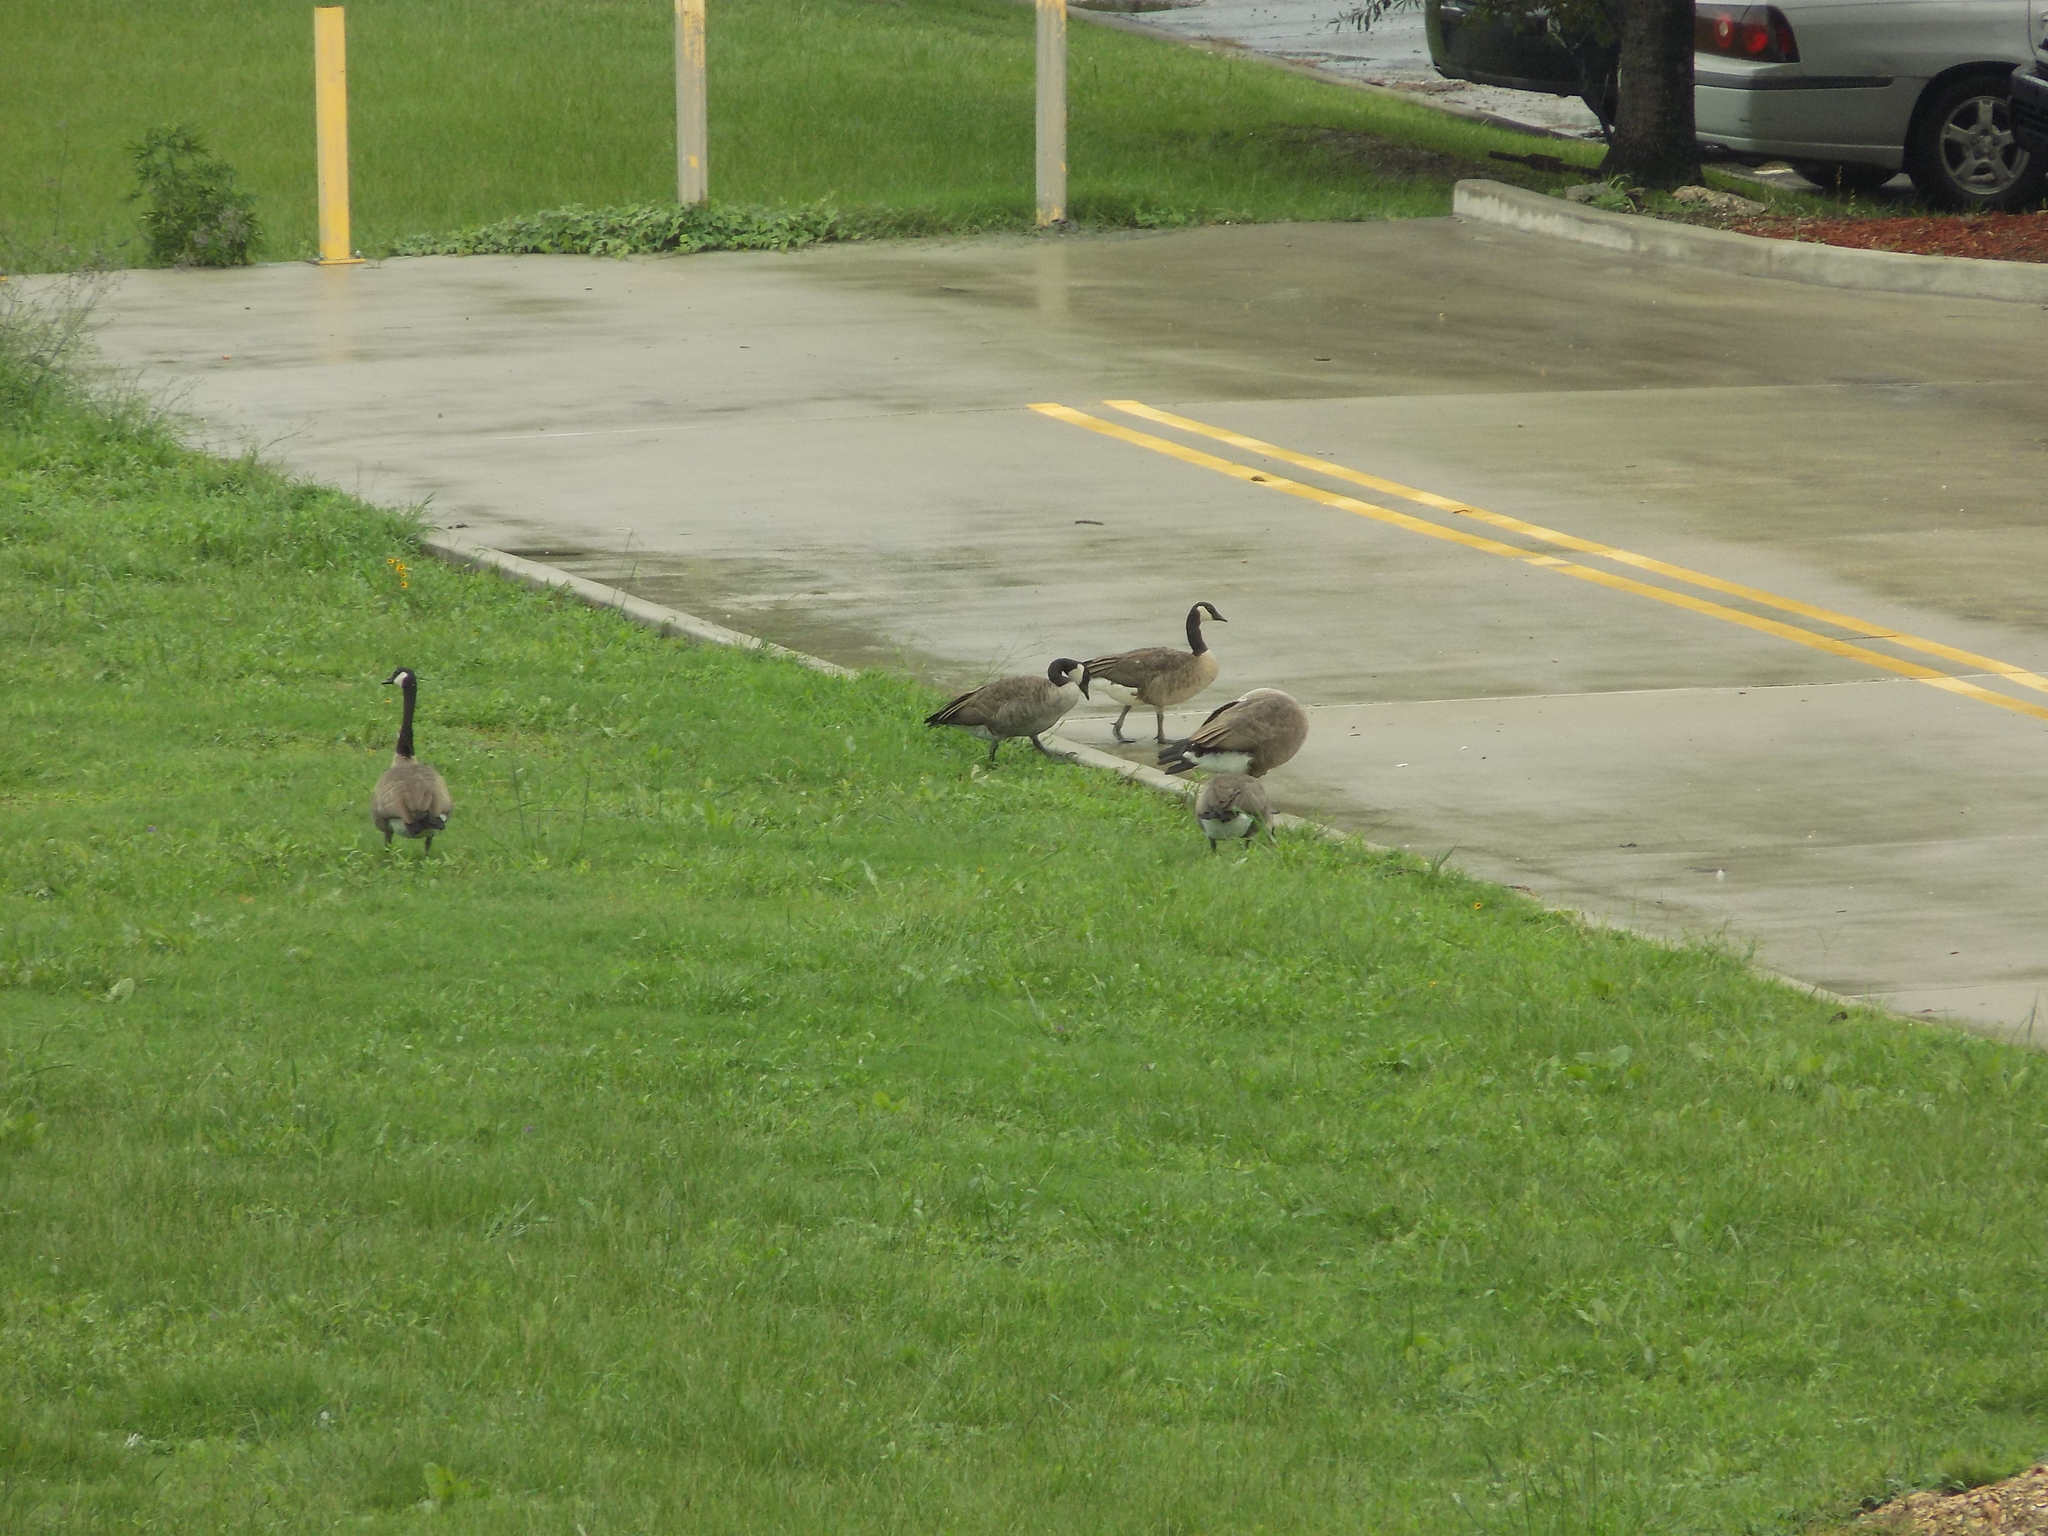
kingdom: Animalia
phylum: Chordata
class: Aves
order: Anseriformes
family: Anatidae
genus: Branta
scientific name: Branta canadensis
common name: Canada goose
